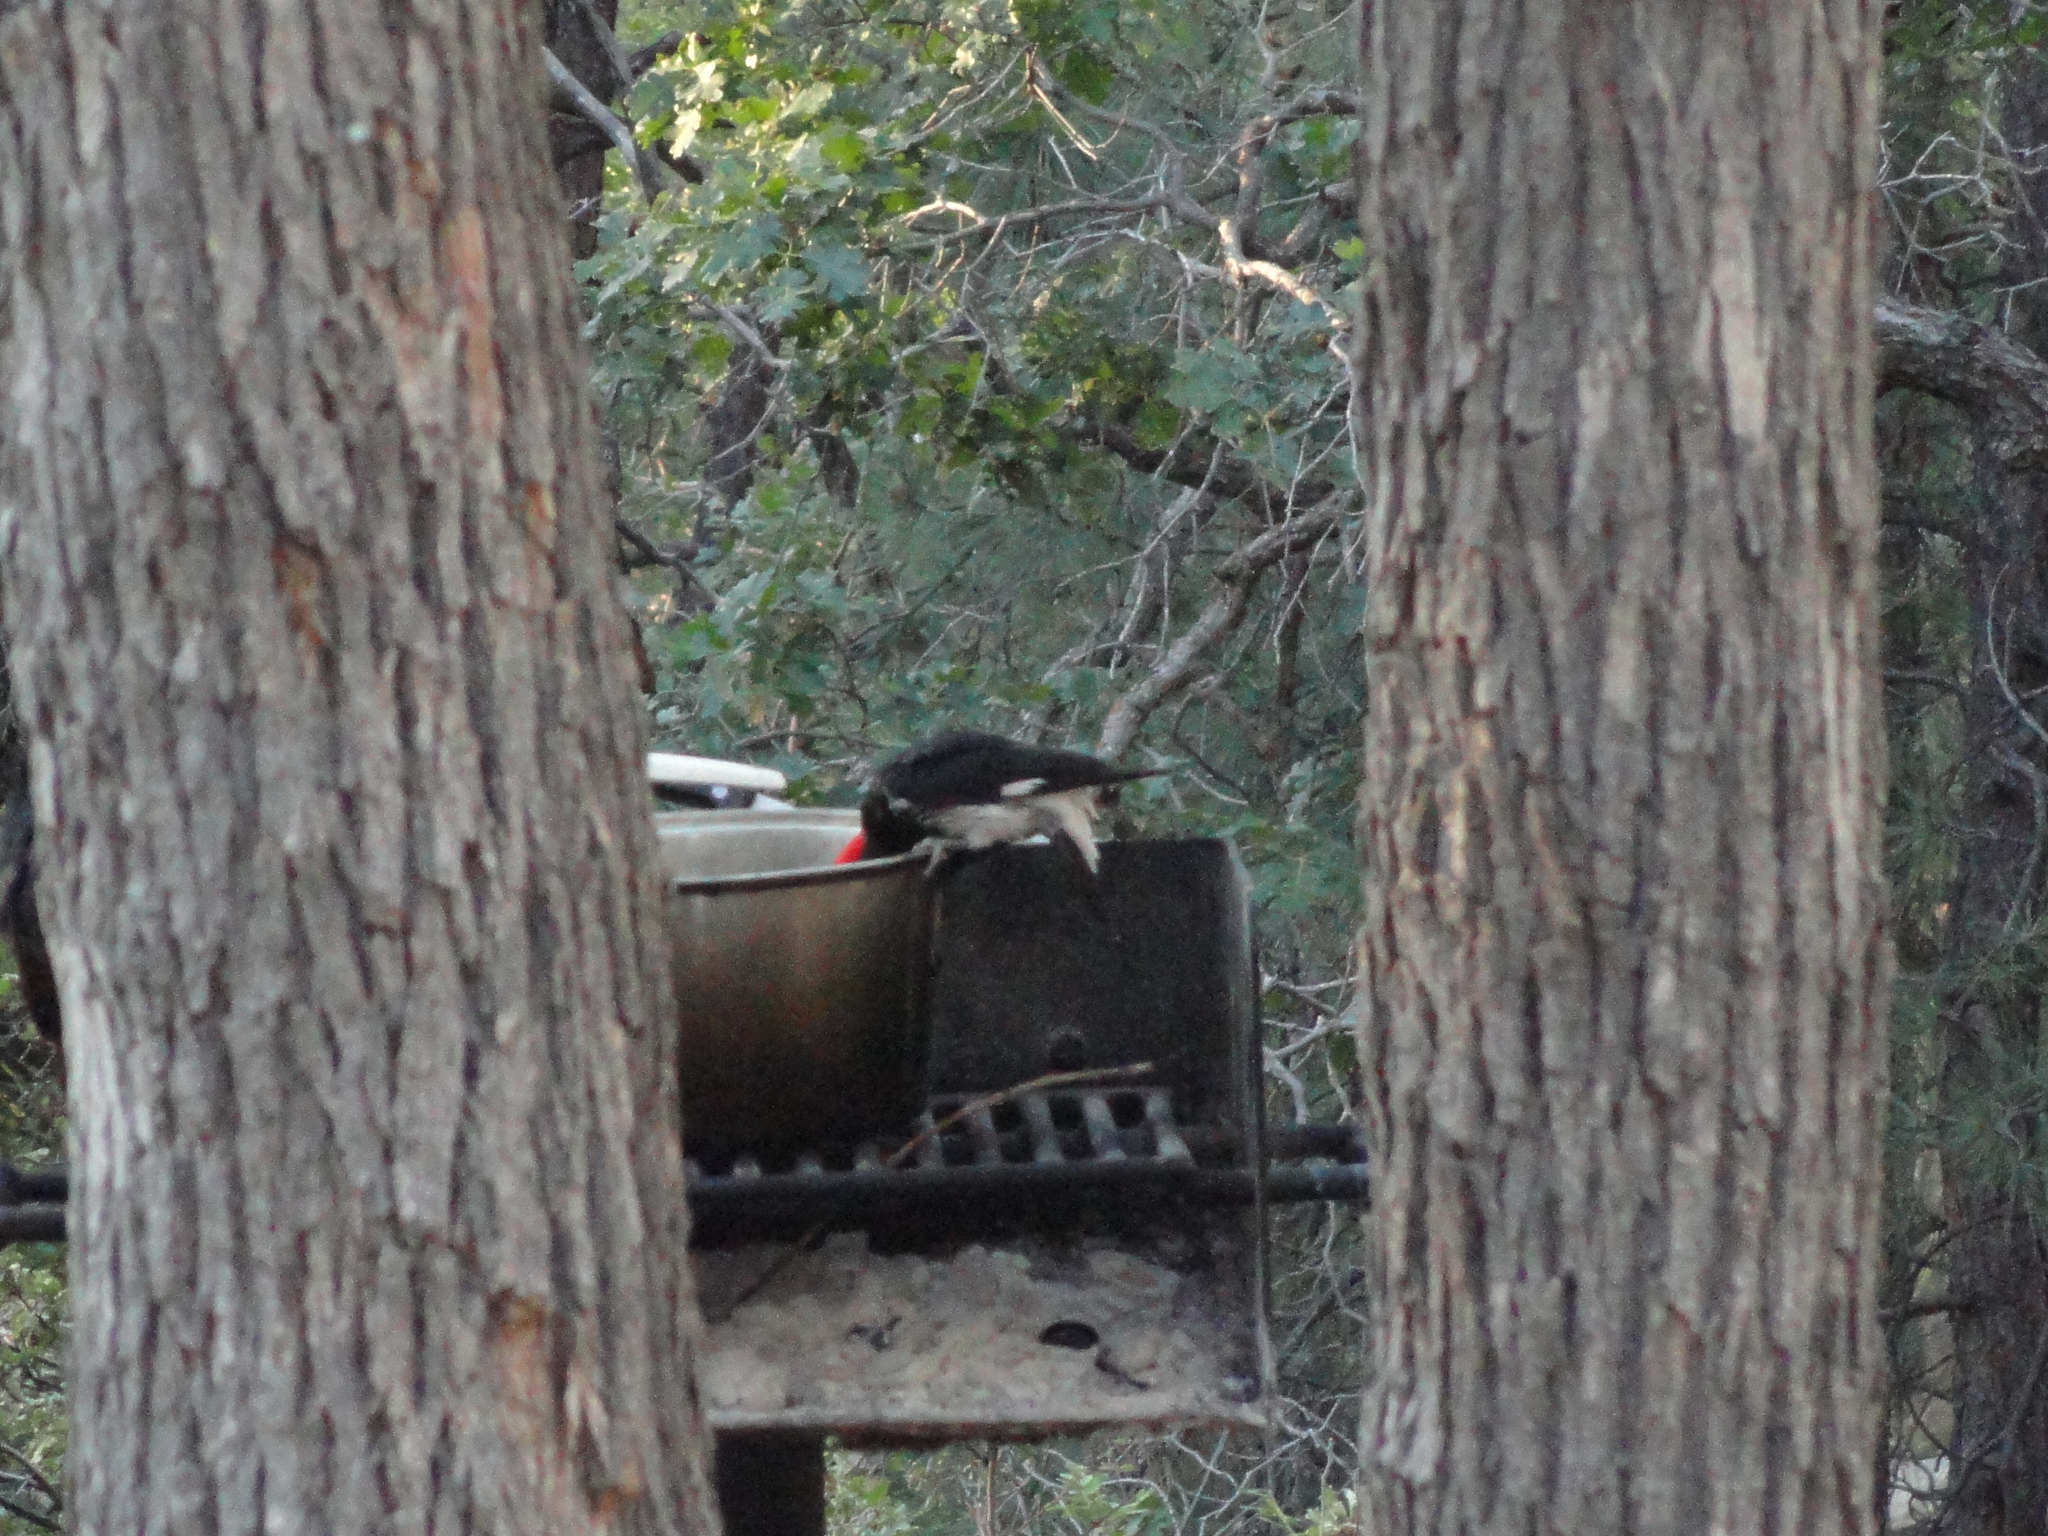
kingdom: Animalia
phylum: Chordata
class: Aves
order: Piciformes
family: Picidae
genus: Melanerpes
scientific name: Melanerpes formicivorus
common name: Acorn woodpecker
